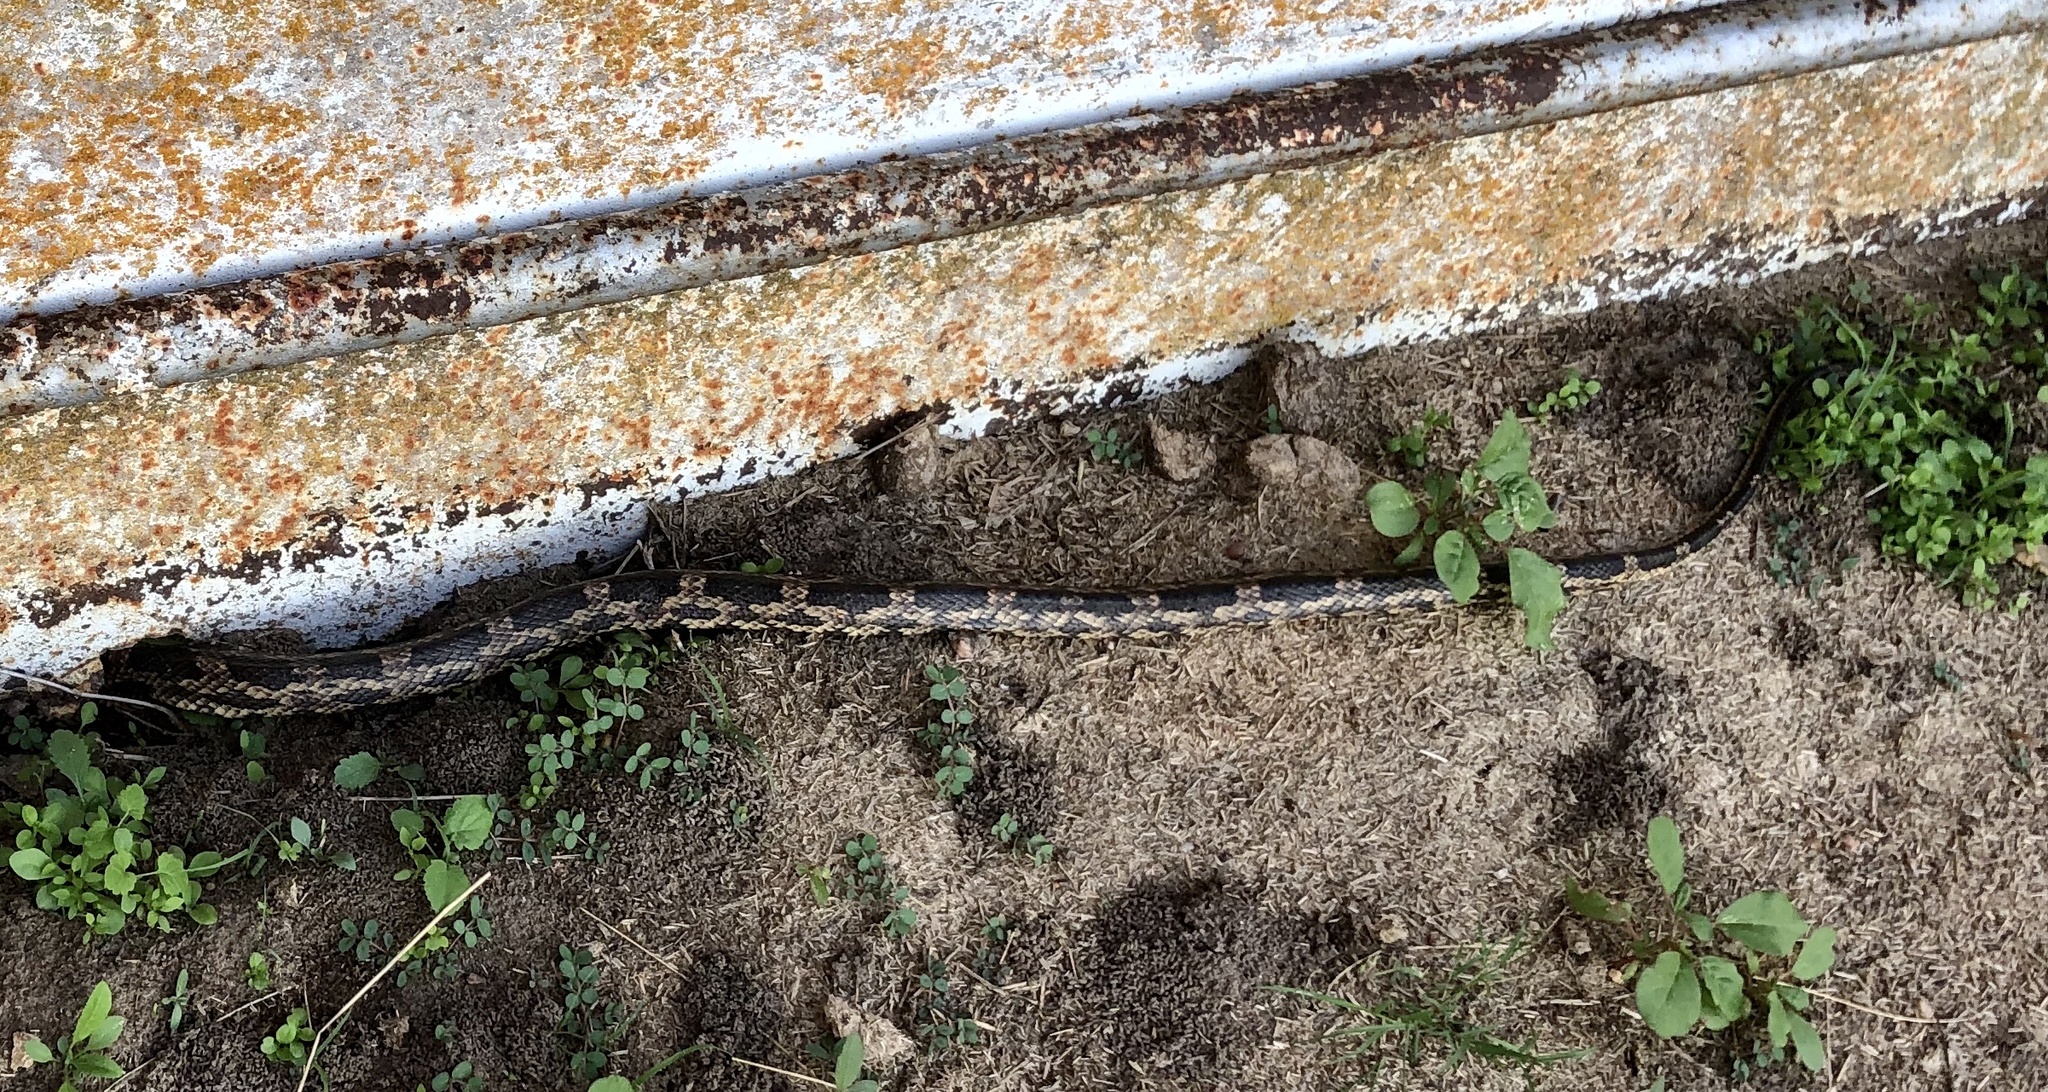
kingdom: Animalia
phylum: Chordata
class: Squamata
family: Colubridae
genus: Pantherophis
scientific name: Pantherophis obsoletus
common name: Black rat snake
